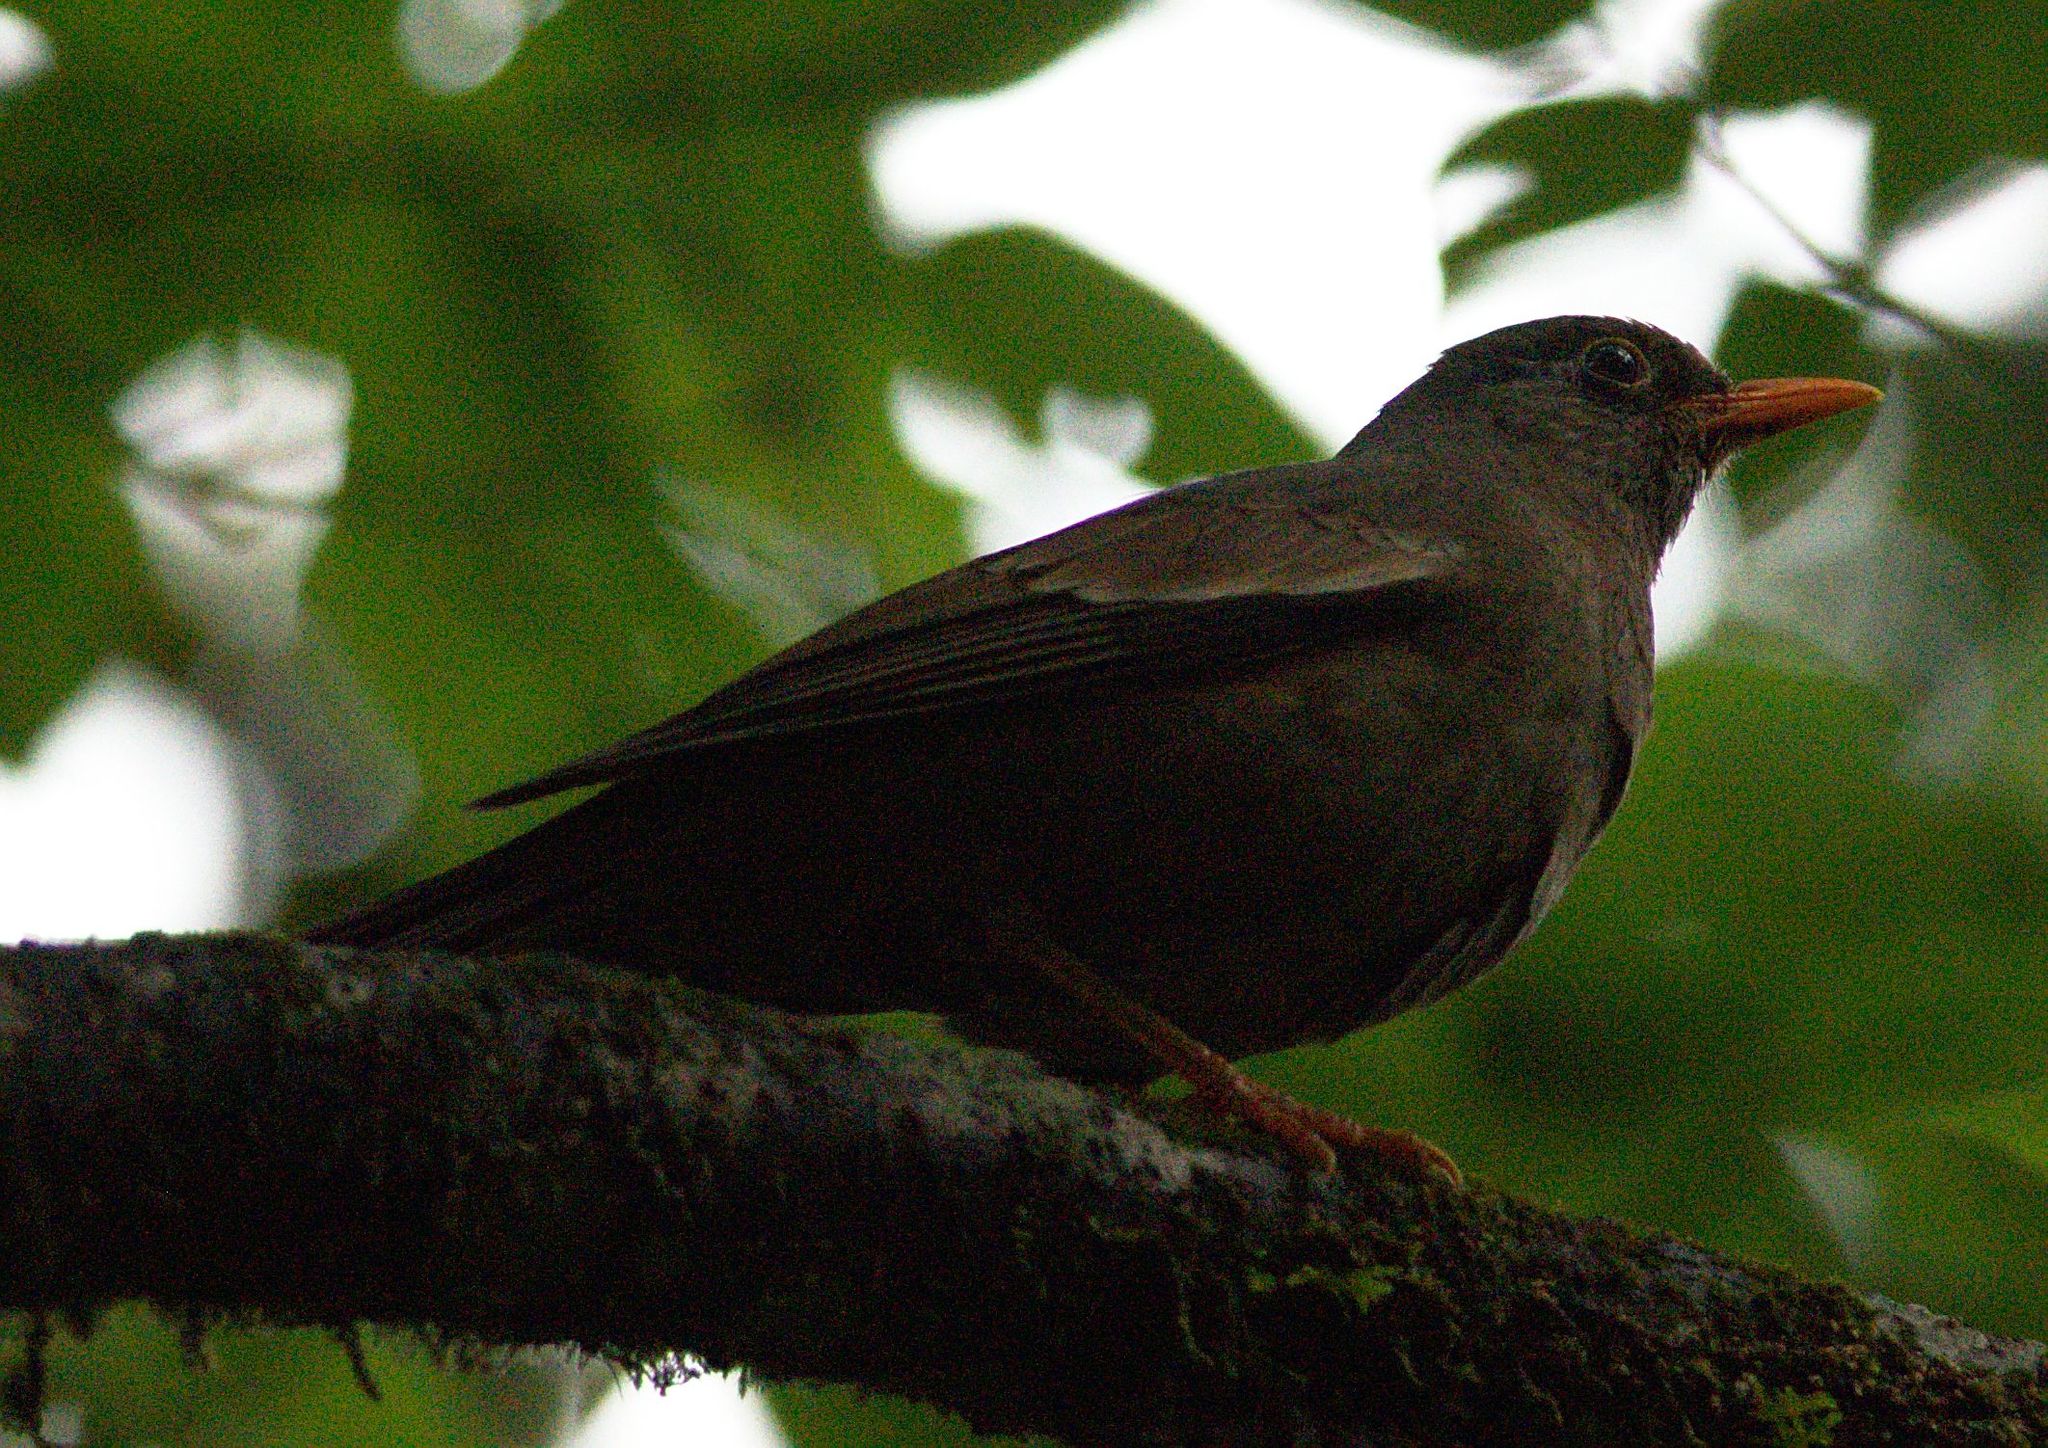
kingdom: Animalia
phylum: Chordata
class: Aves
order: Passeriformes
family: Turdidae
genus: Turdus
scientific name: Turdus boulboul
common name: Grey-winged blackbird
